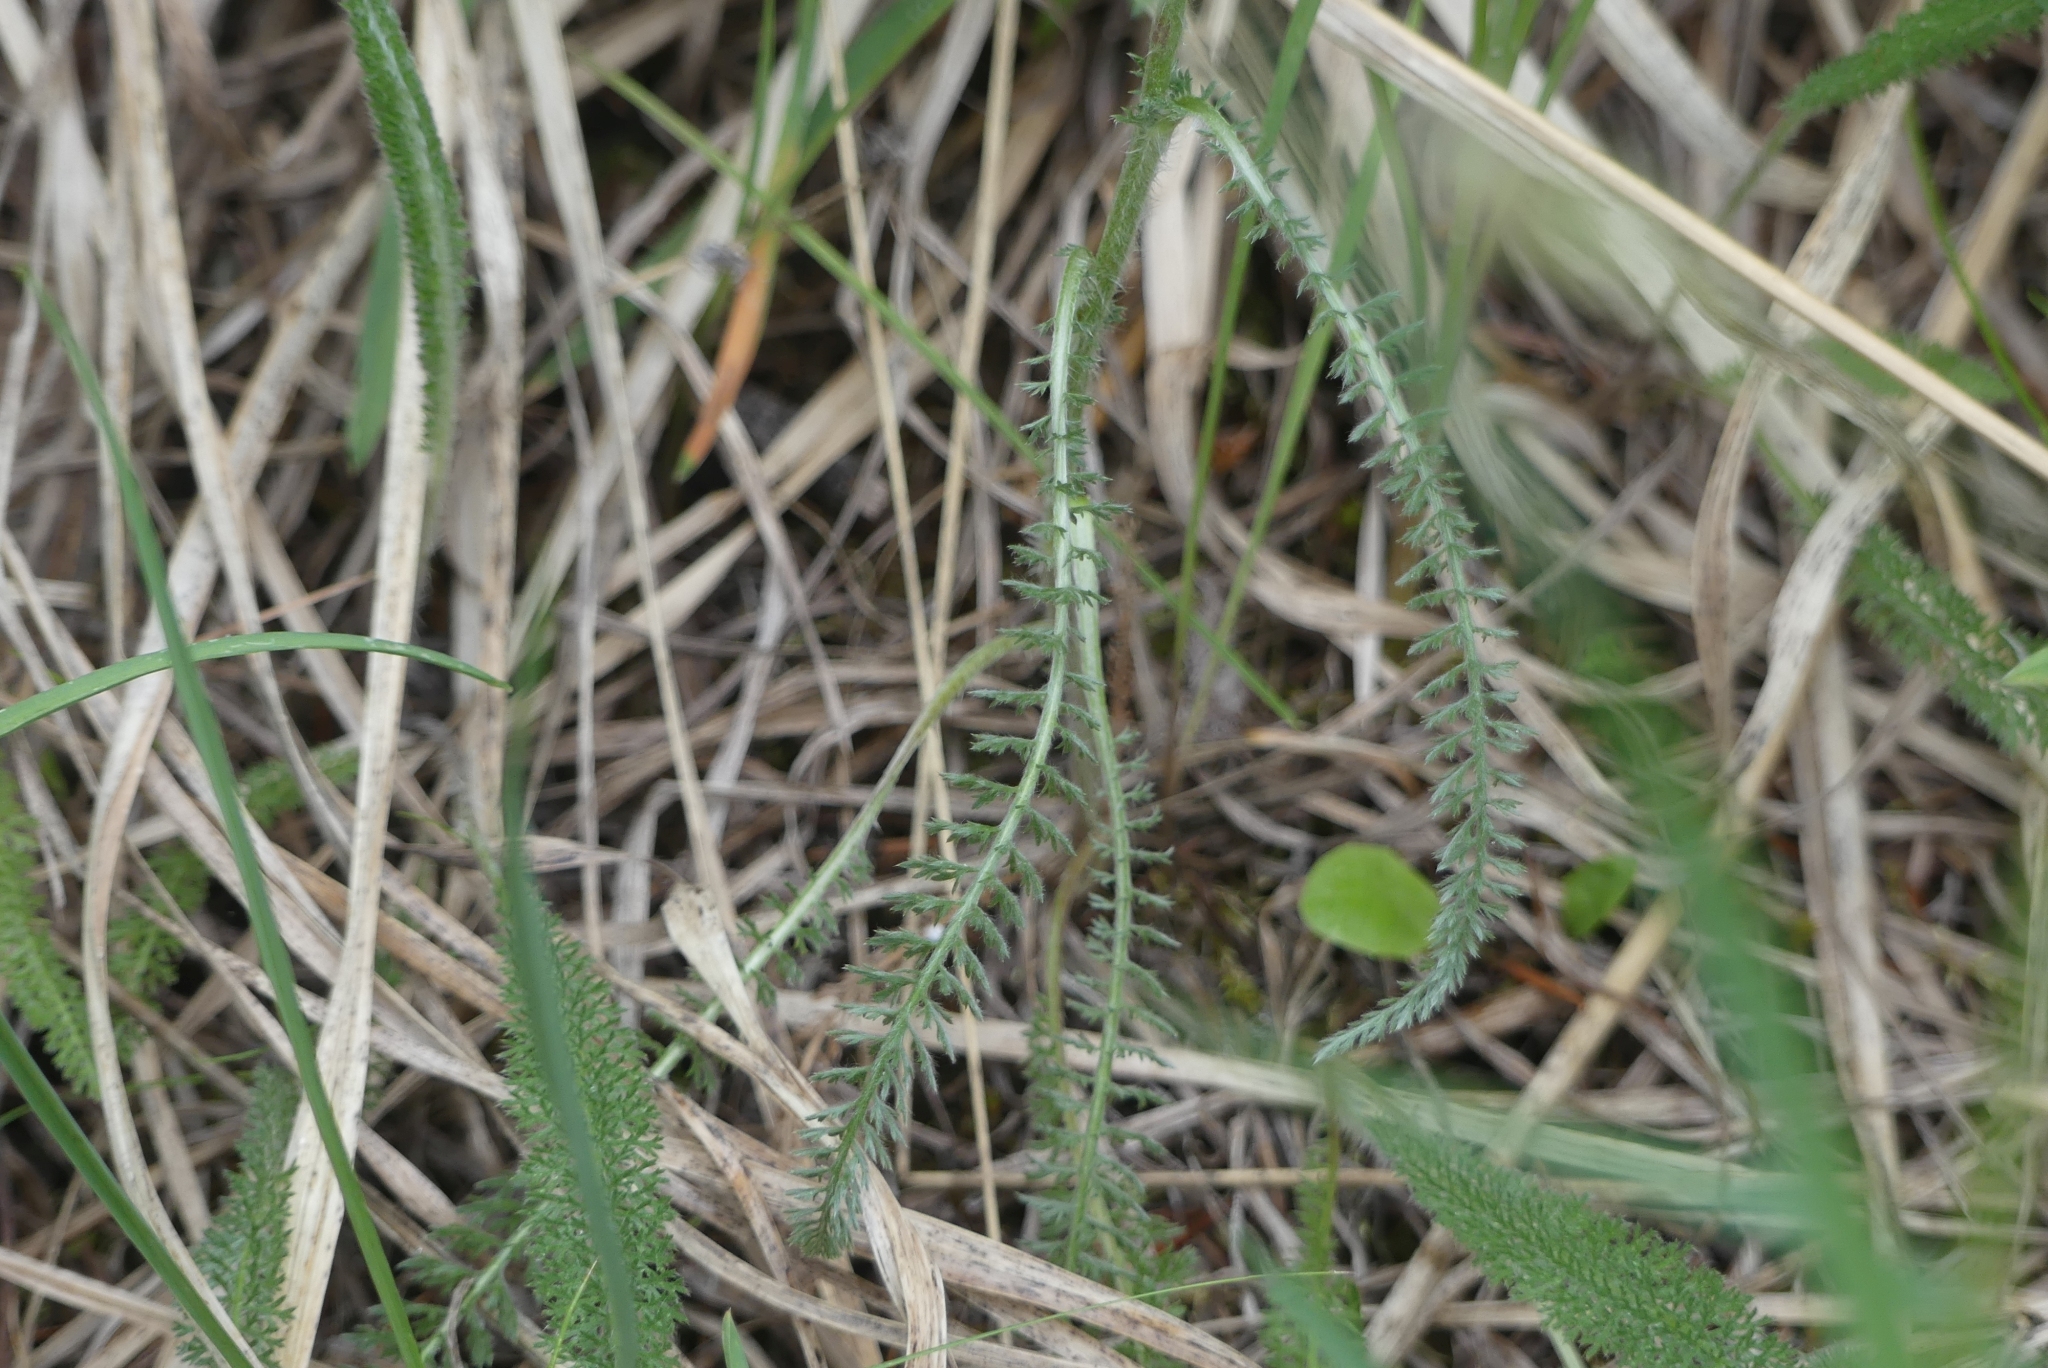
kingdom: Plantae
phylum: Tracheophyta
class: Magnoliopsida
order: Asterales
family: Asteraceae
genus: Achillea
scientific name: Achillea millefolium
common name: Yarrow
